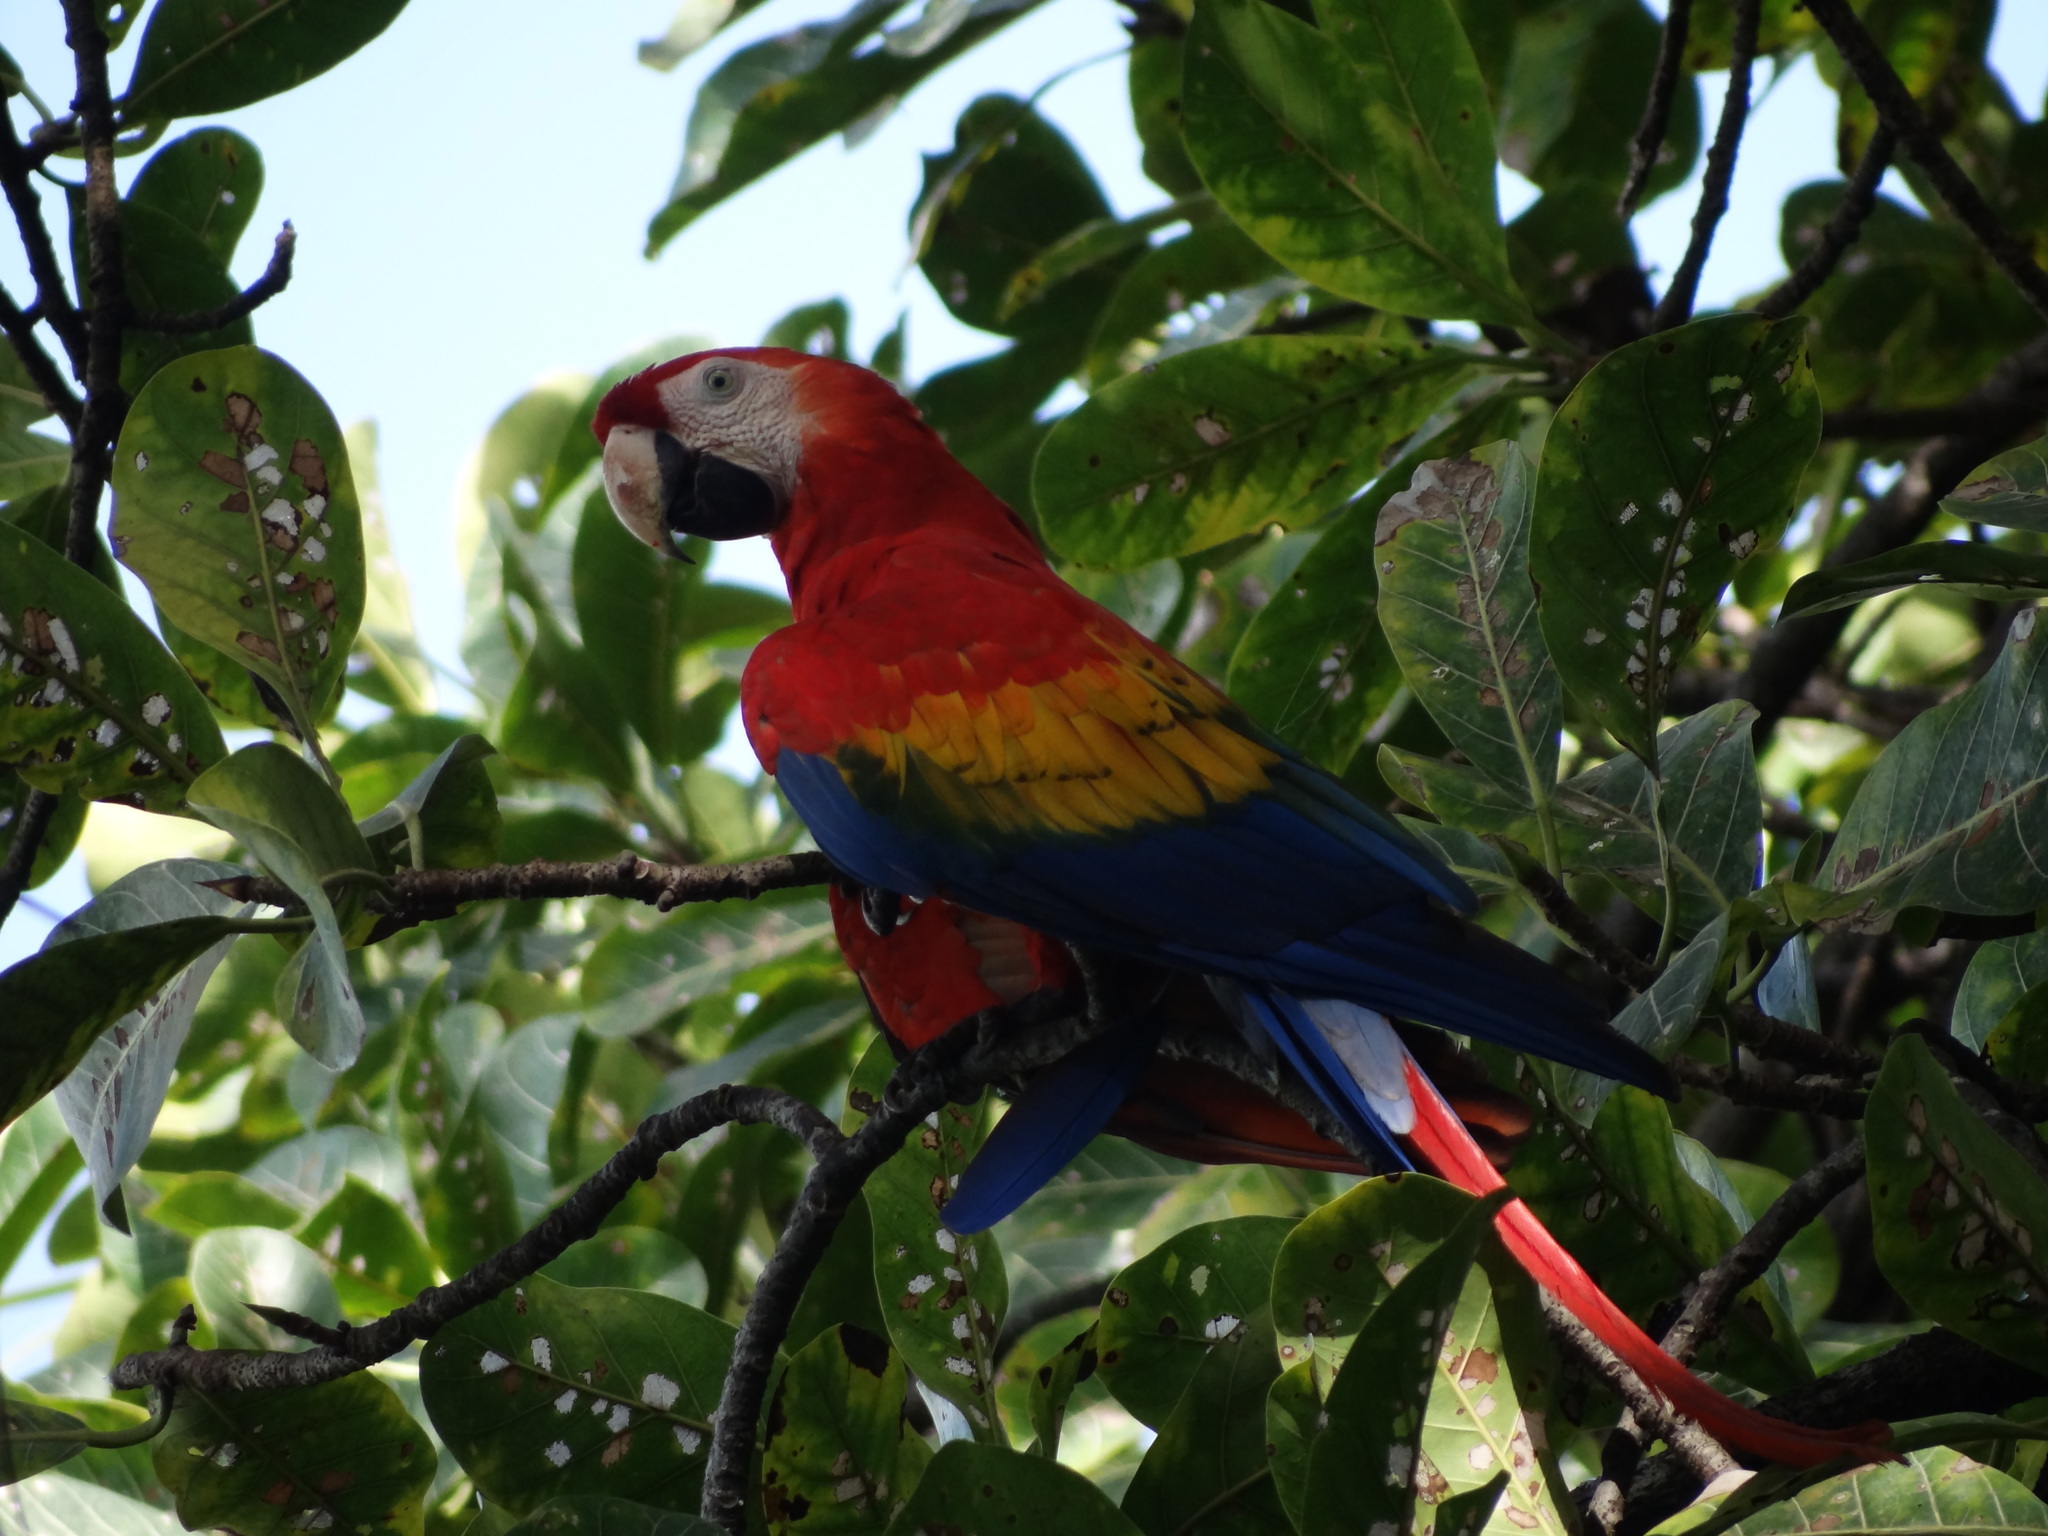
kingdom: Animalia
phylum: Chordata
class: Aves
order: Psittaciformes
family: Psittacidae
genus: Ara
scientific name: Ara macao
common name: Scarlet macaw
